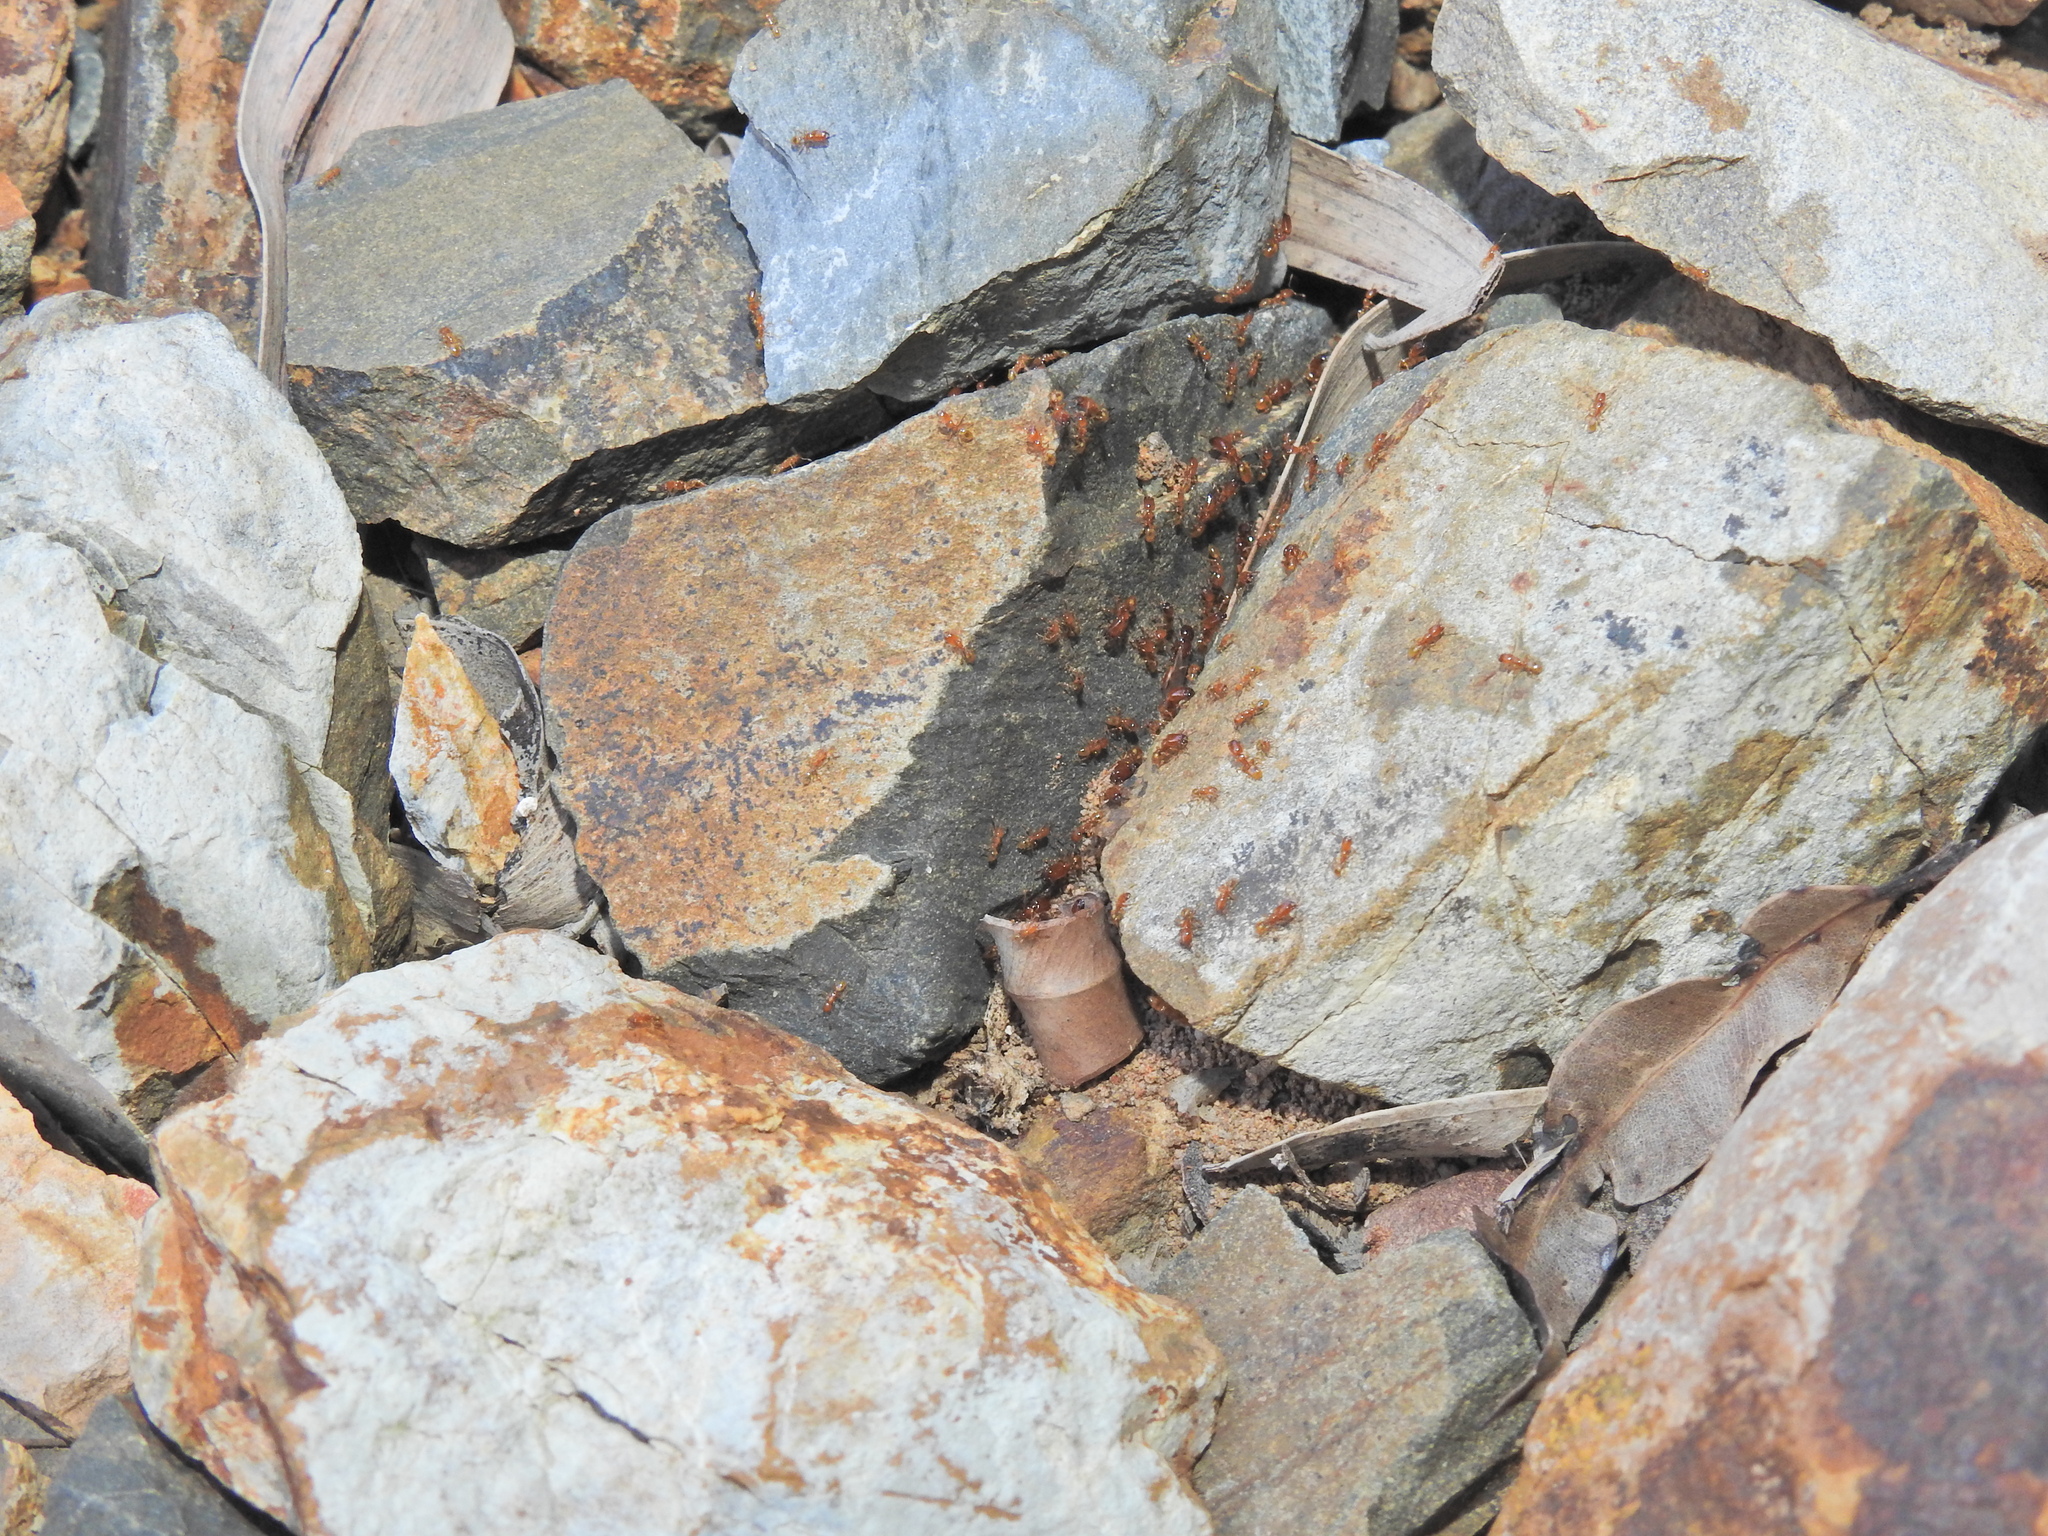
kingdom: Animalia
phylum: Arthropoda
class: Insecta
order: Hymenoptera
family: Formicidae
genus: Pheidole
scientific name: Pheidole
